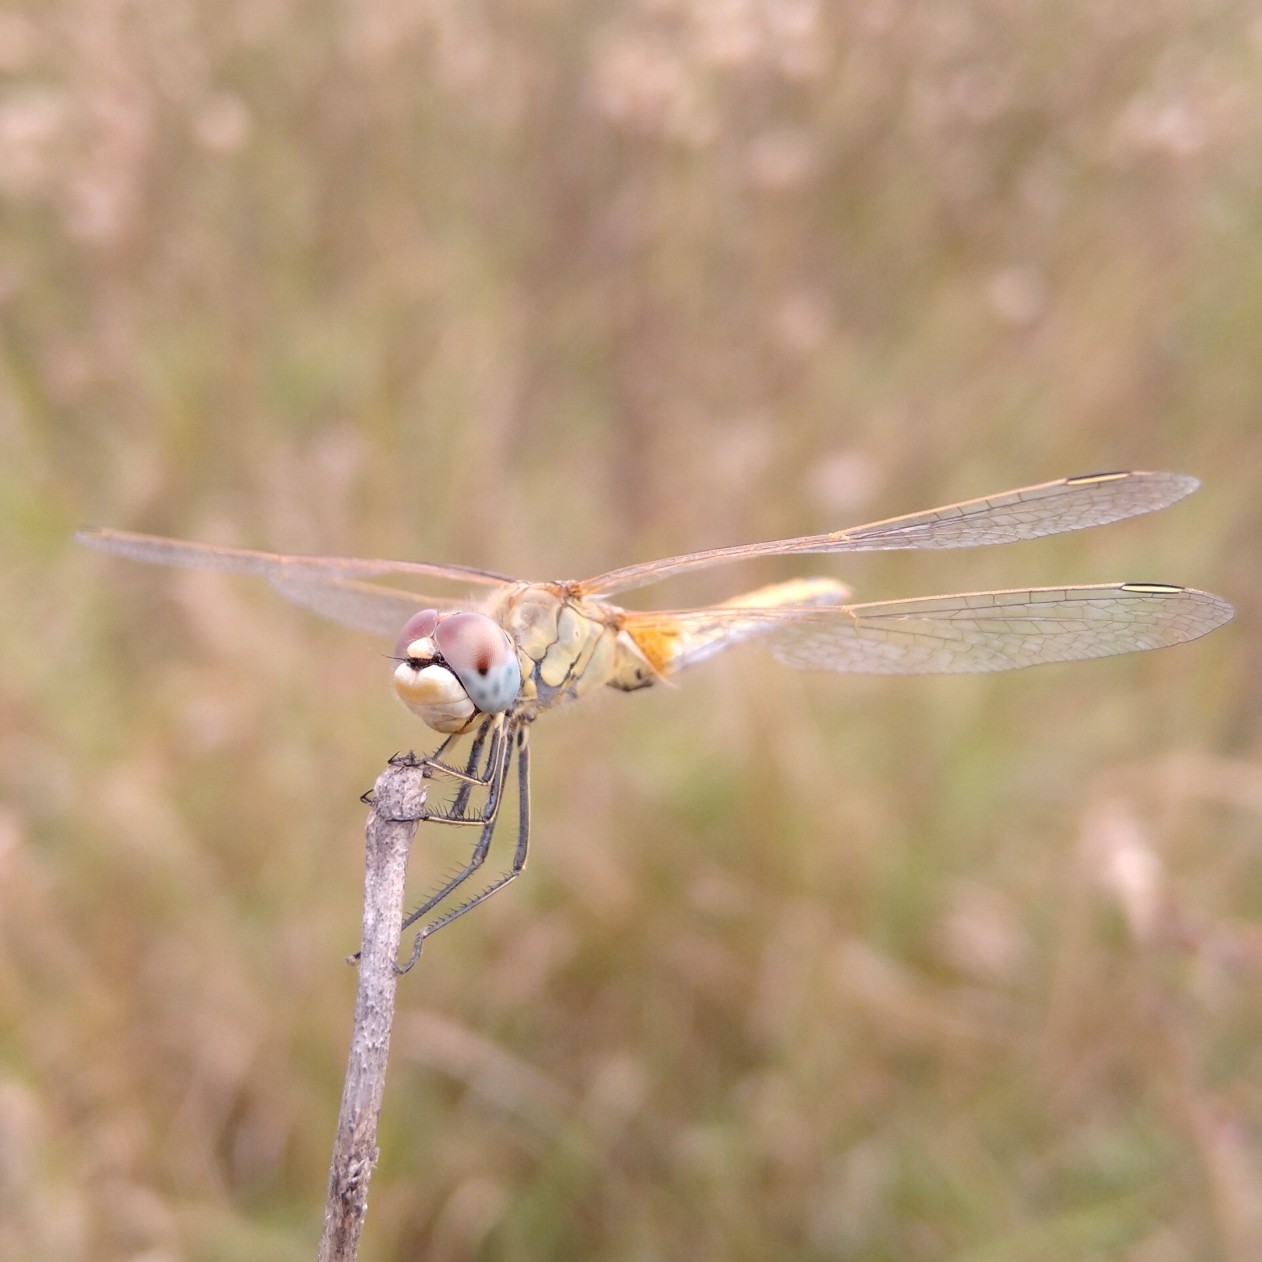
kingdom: Animalia
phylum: Arthropoda
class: Insecta
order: Odonata
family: Libellulidae
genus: Sympetrum
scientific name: Sympetrum fonscolombii
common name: Red-veined darter
